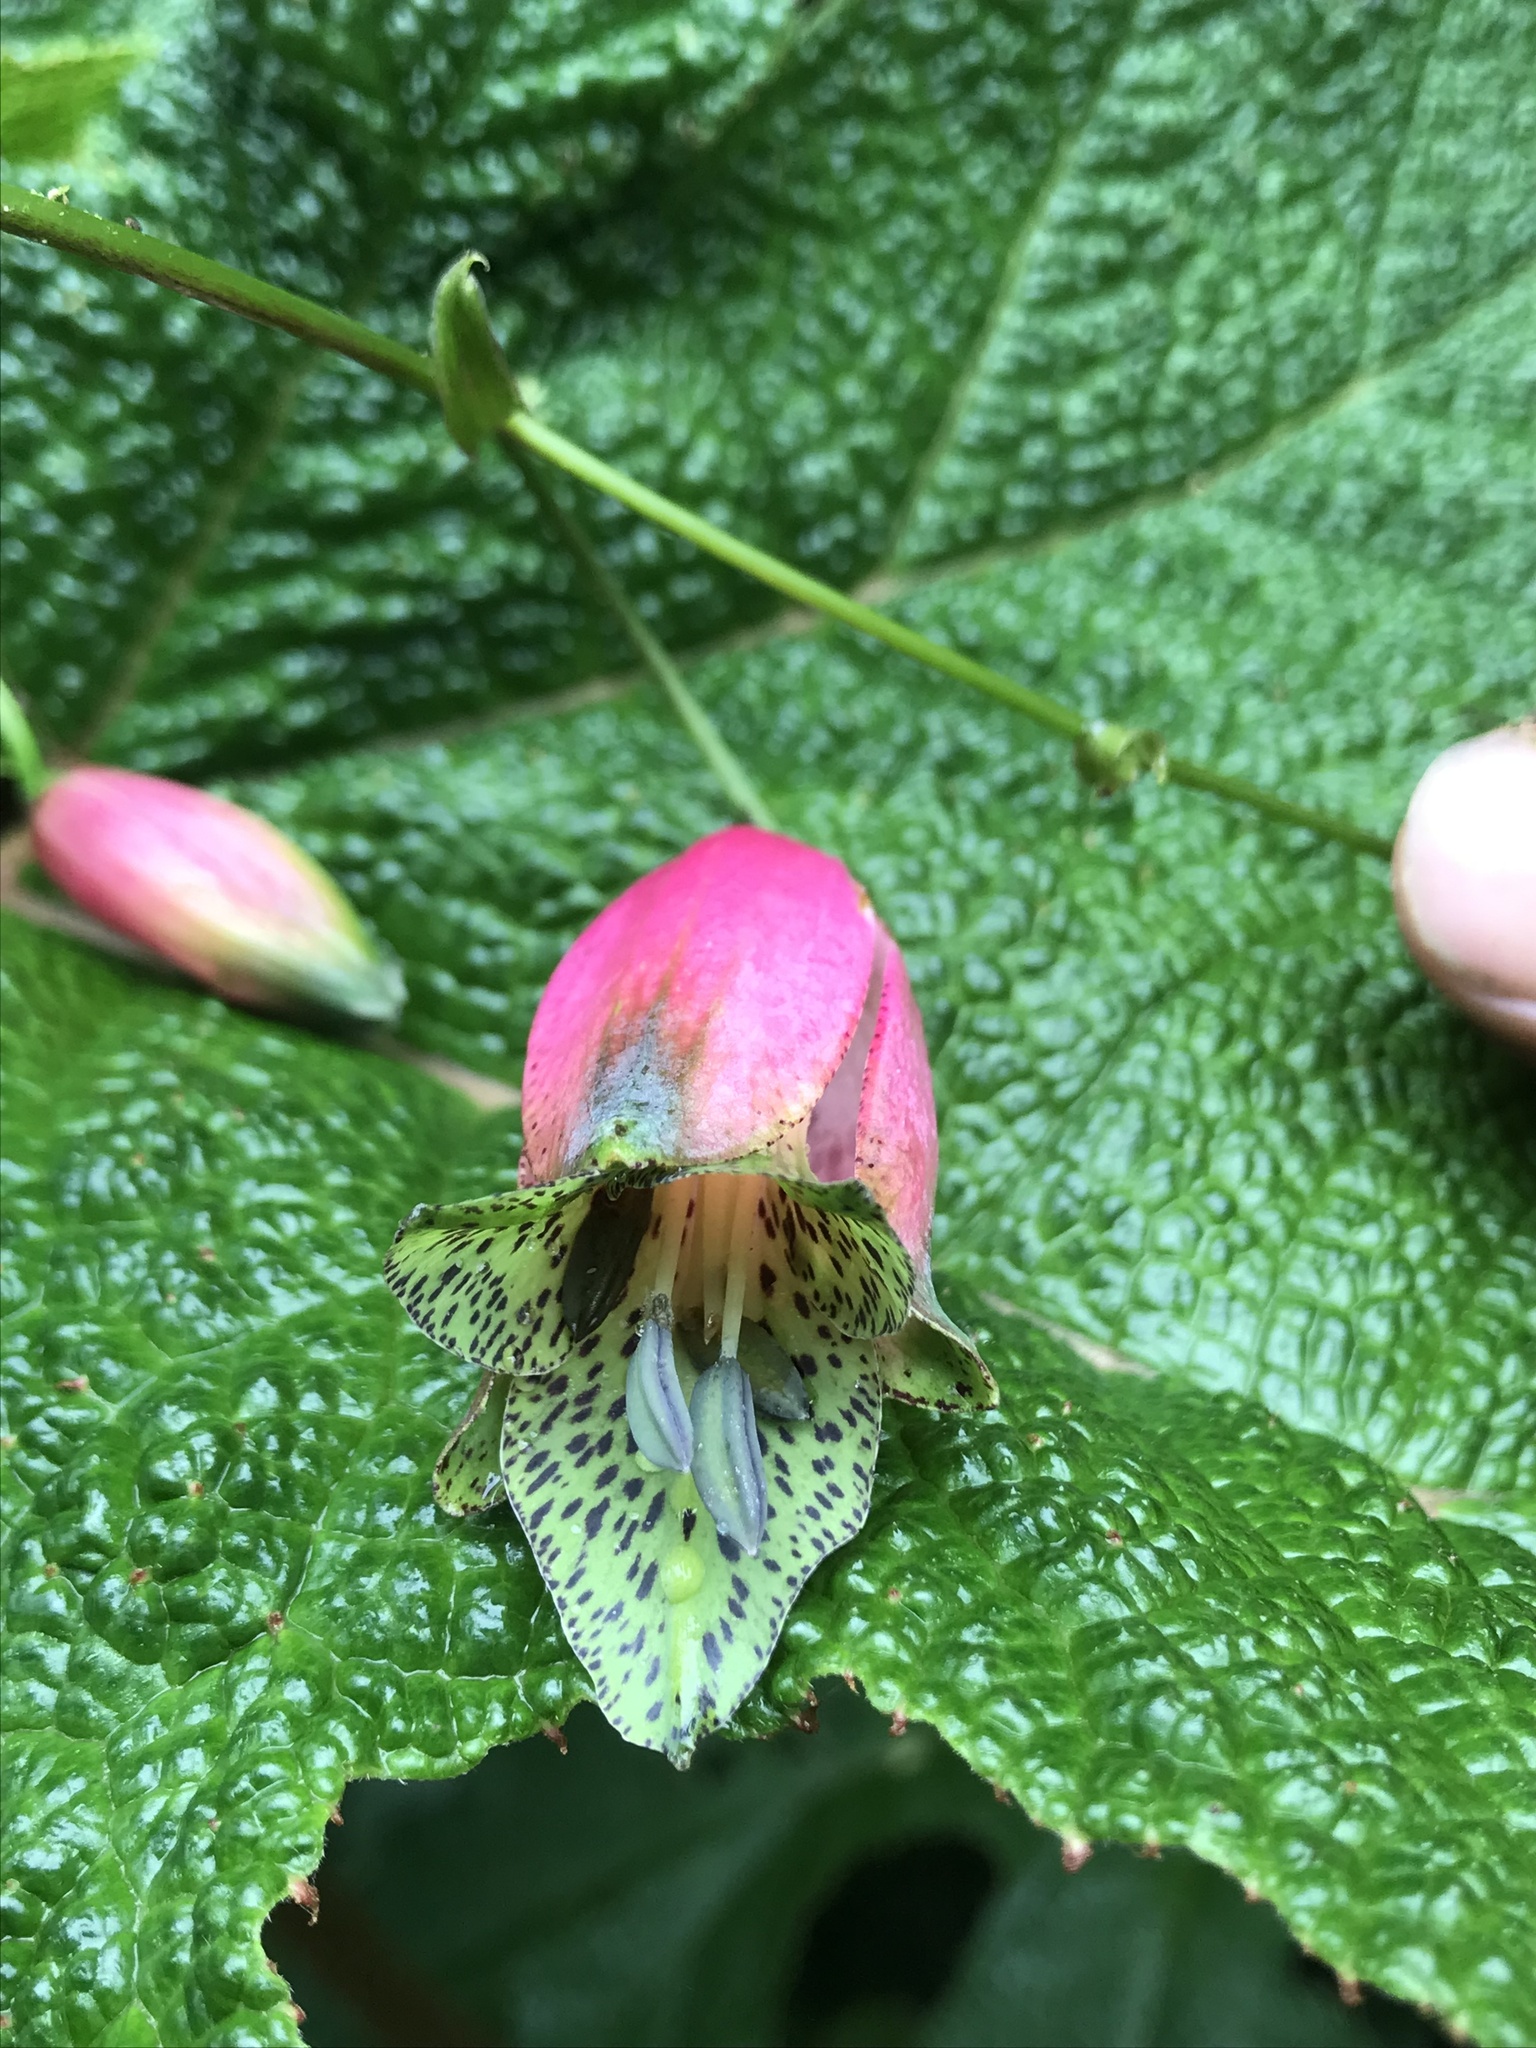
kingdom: Plantae
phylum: Tracheophyta
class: Liliopsida
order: Liliales
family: Alstroemeriaceae
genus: Bomarea
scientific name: Bomarea diffracta
